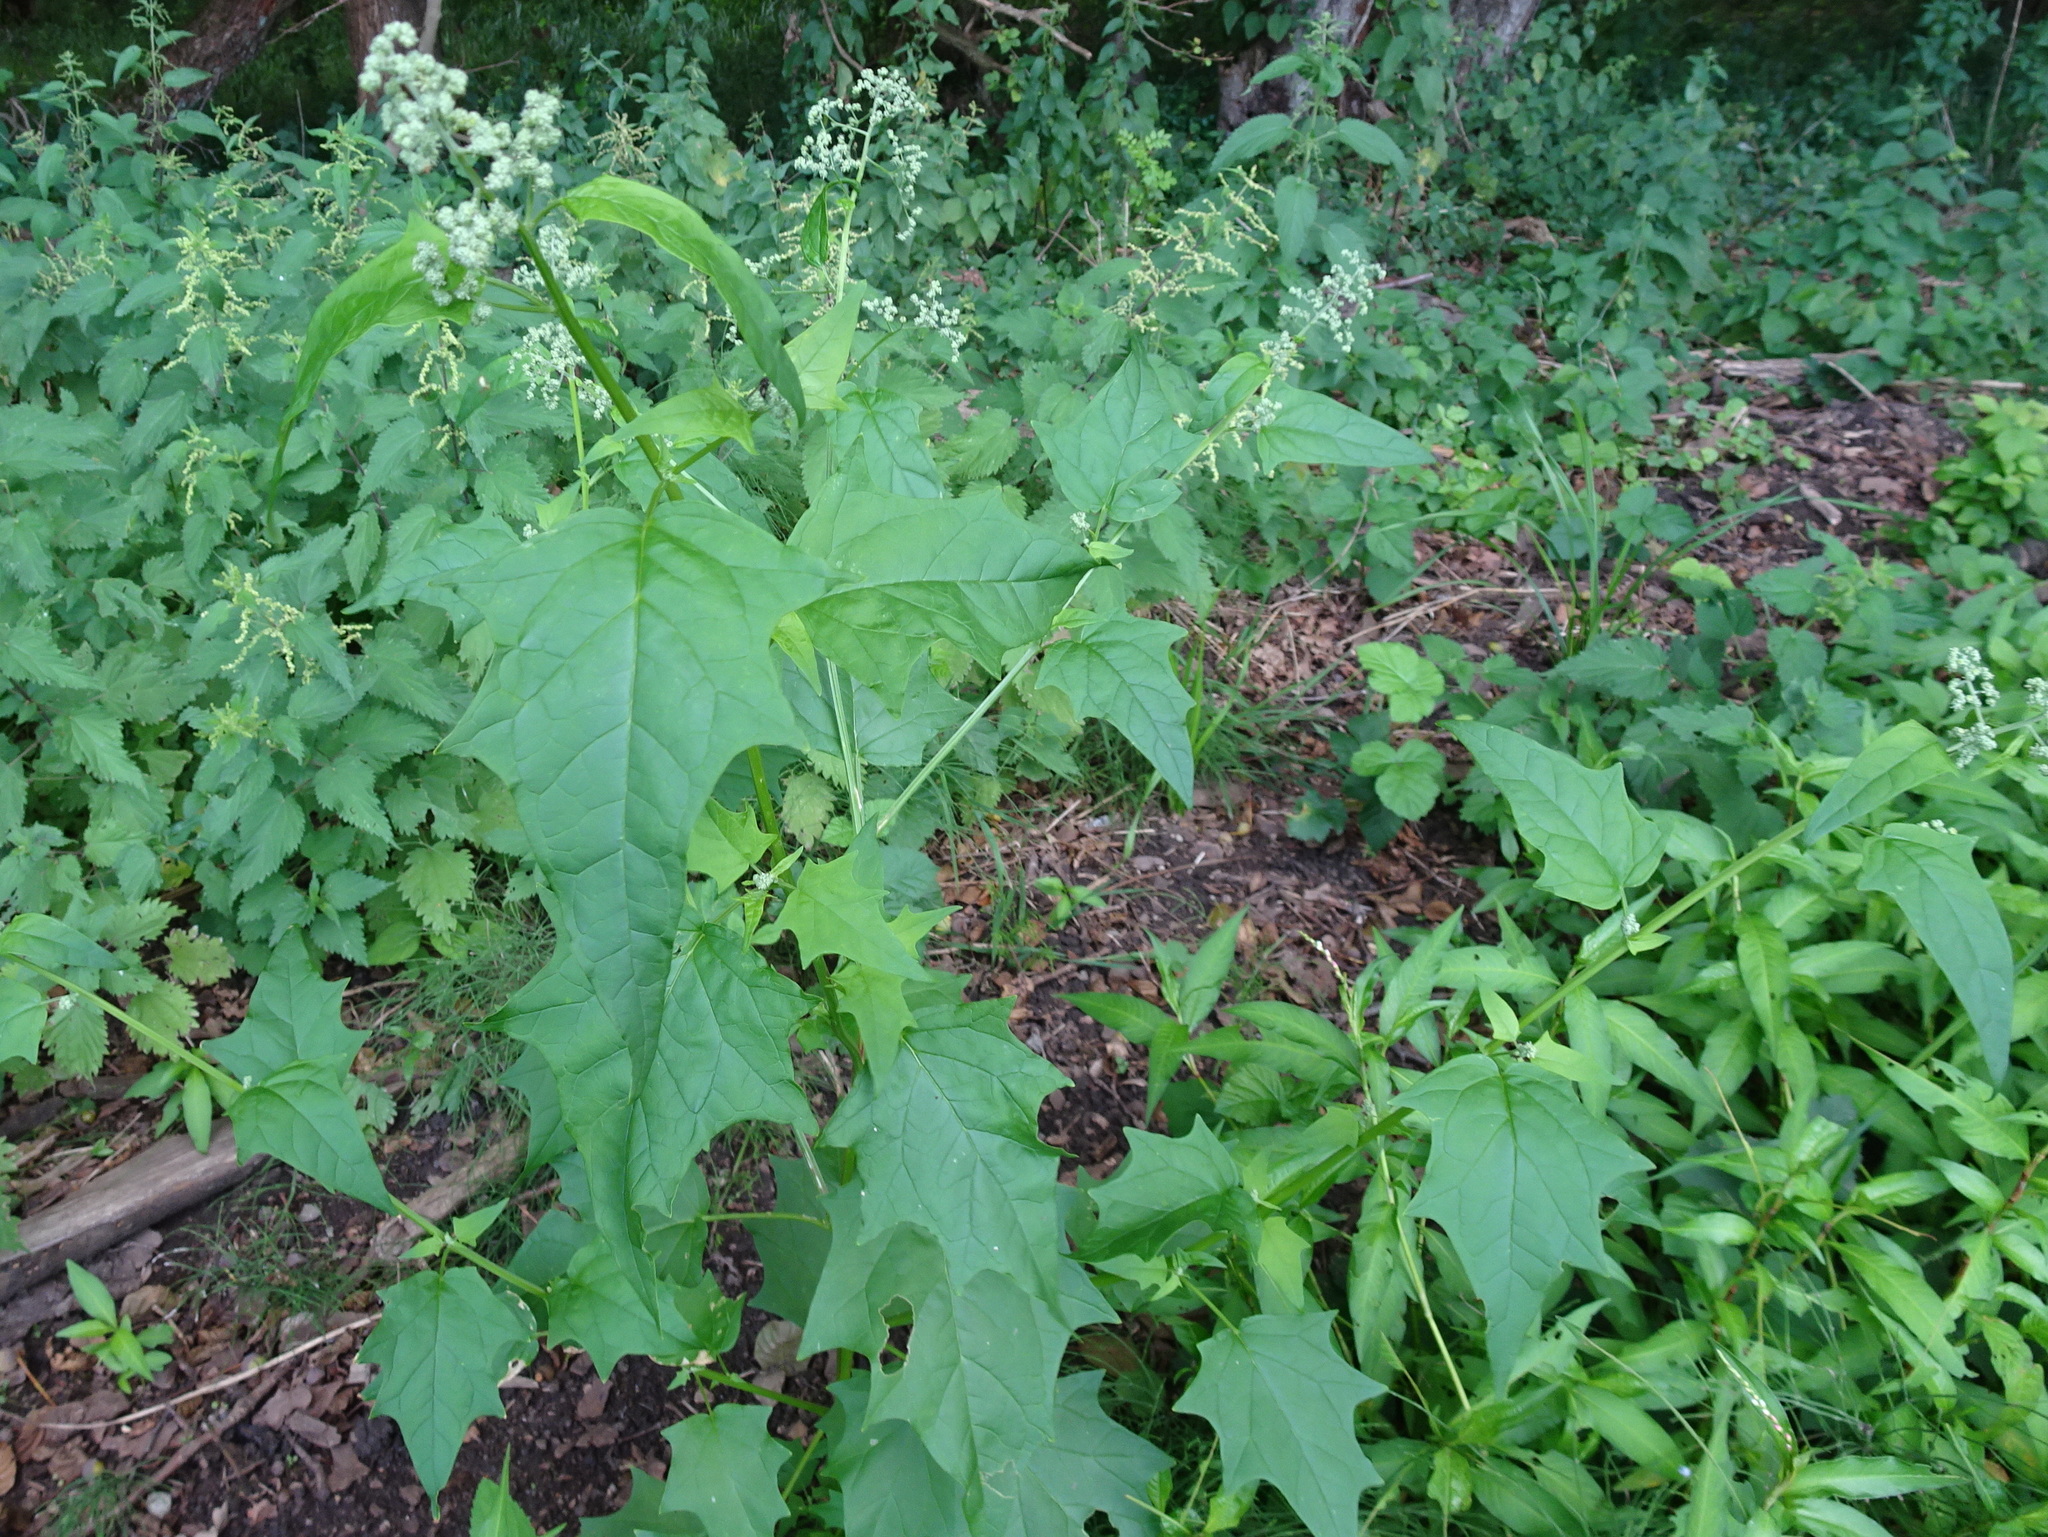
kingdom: Plantae
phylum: Tracheophyta
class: Magnoliopsida
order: Caryophyllales
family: Amaranthaceae
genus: Chenopodiastrum
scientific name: Chenopodiastrum hybridum
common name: Mapleleaf goosefoot
